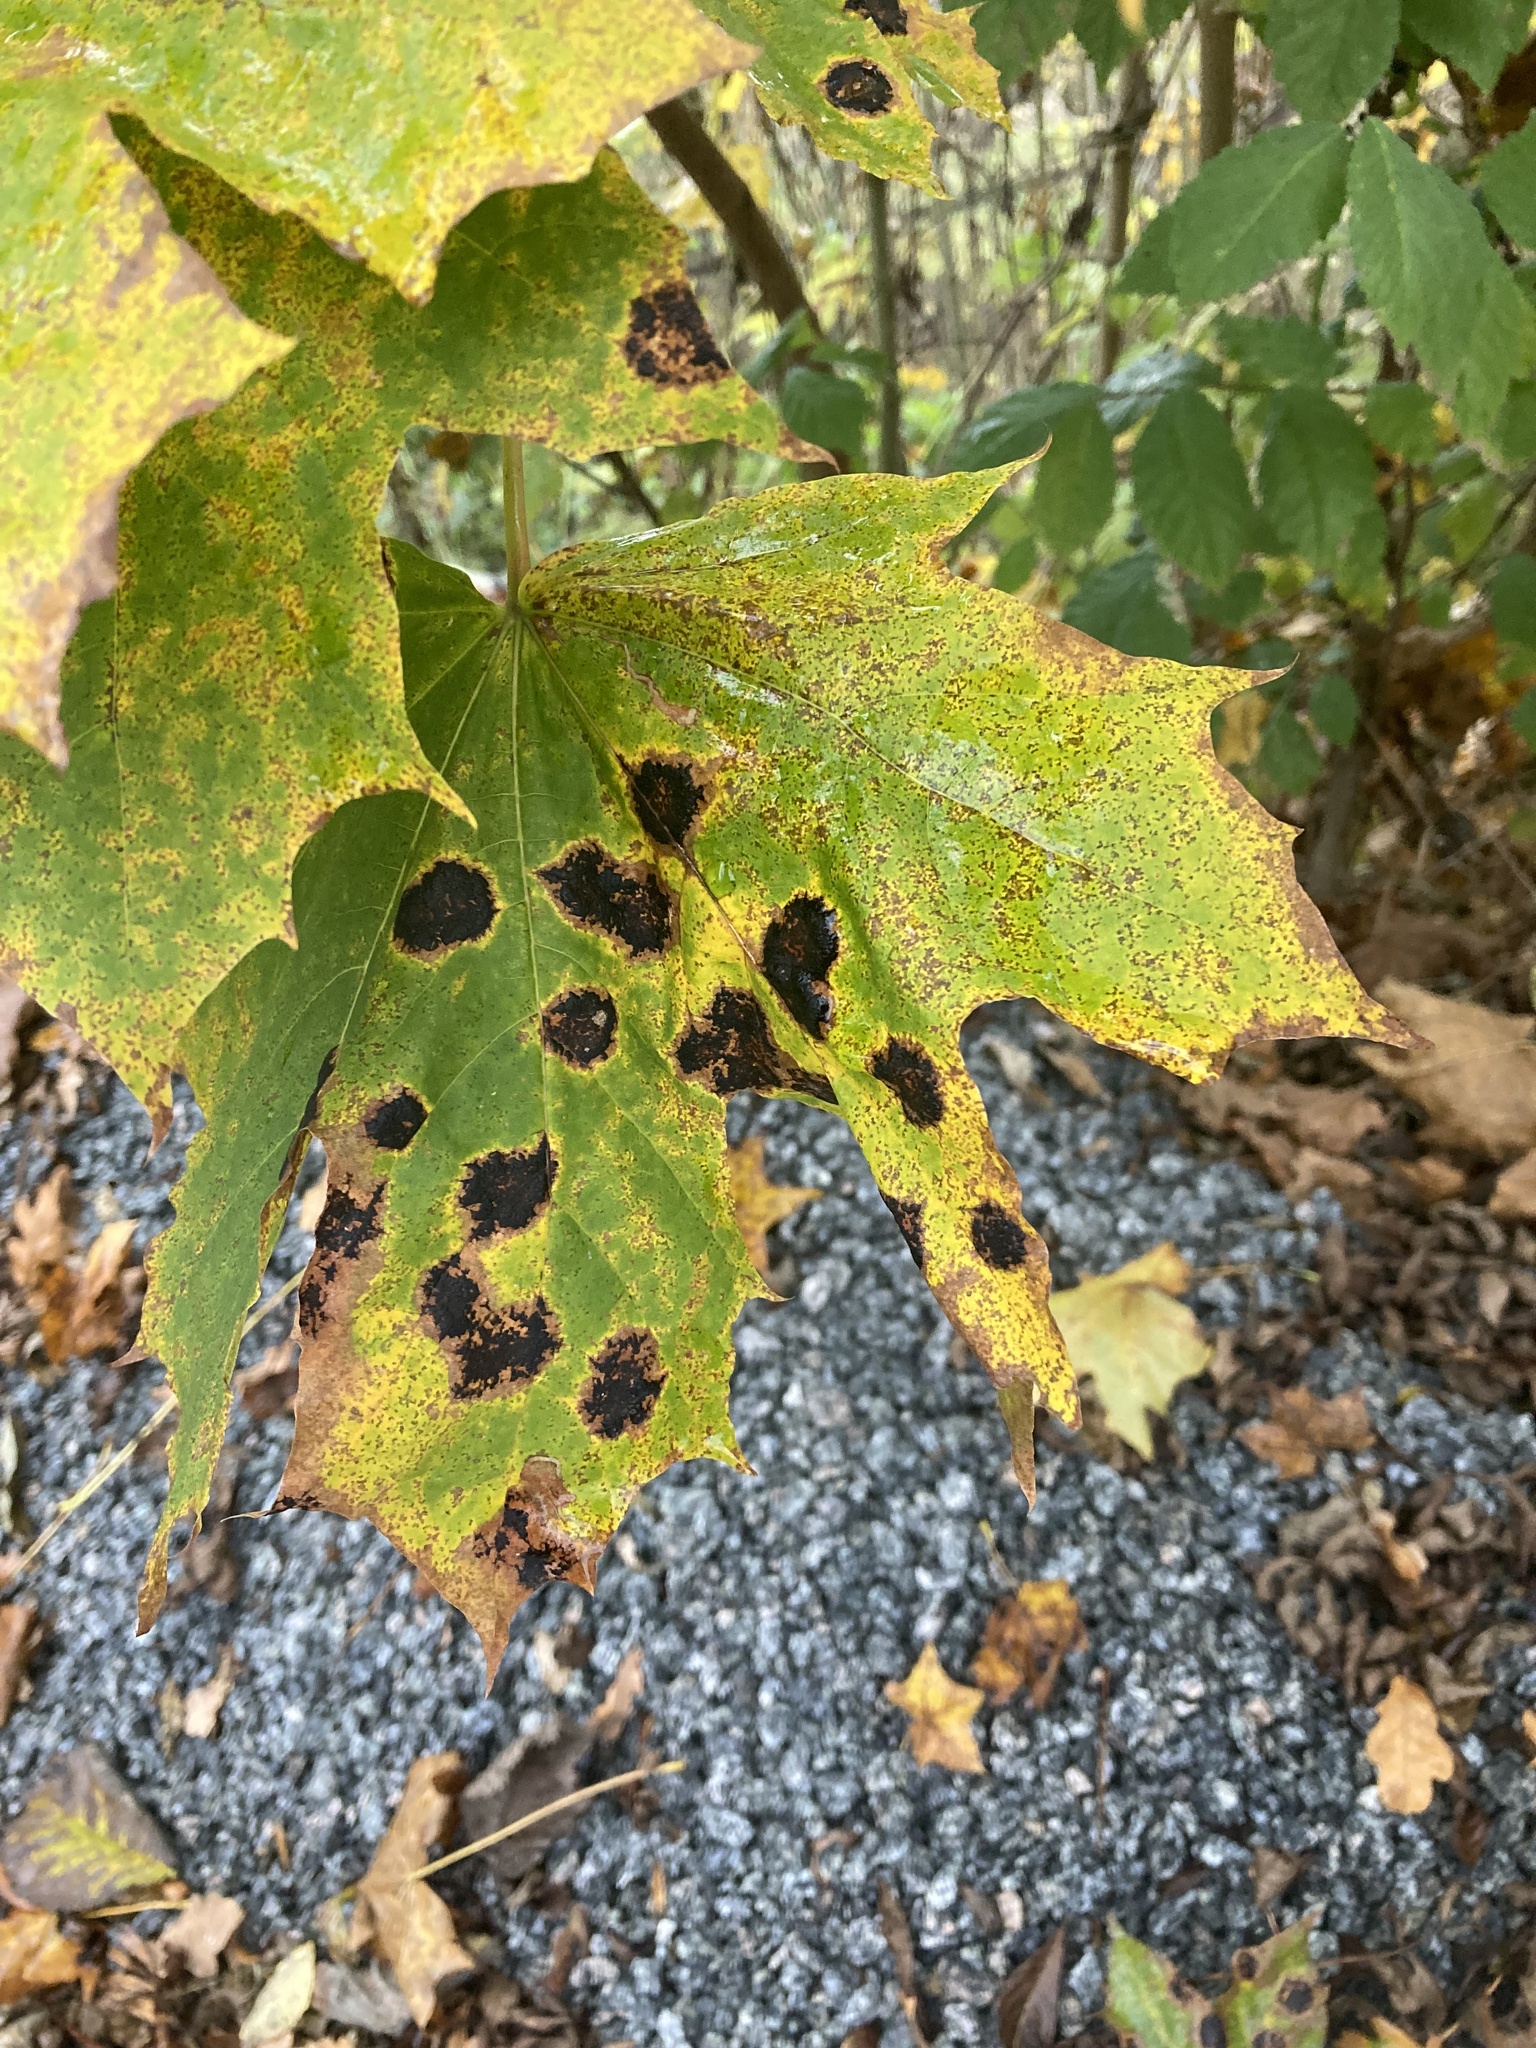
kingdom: Fungi
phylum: Ascomycota
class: Leotiomycetes
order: Rhytismatales
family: Rhytismataceae
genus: Rhytisma
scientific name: Rhytisma acerinum
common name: European tar spot
